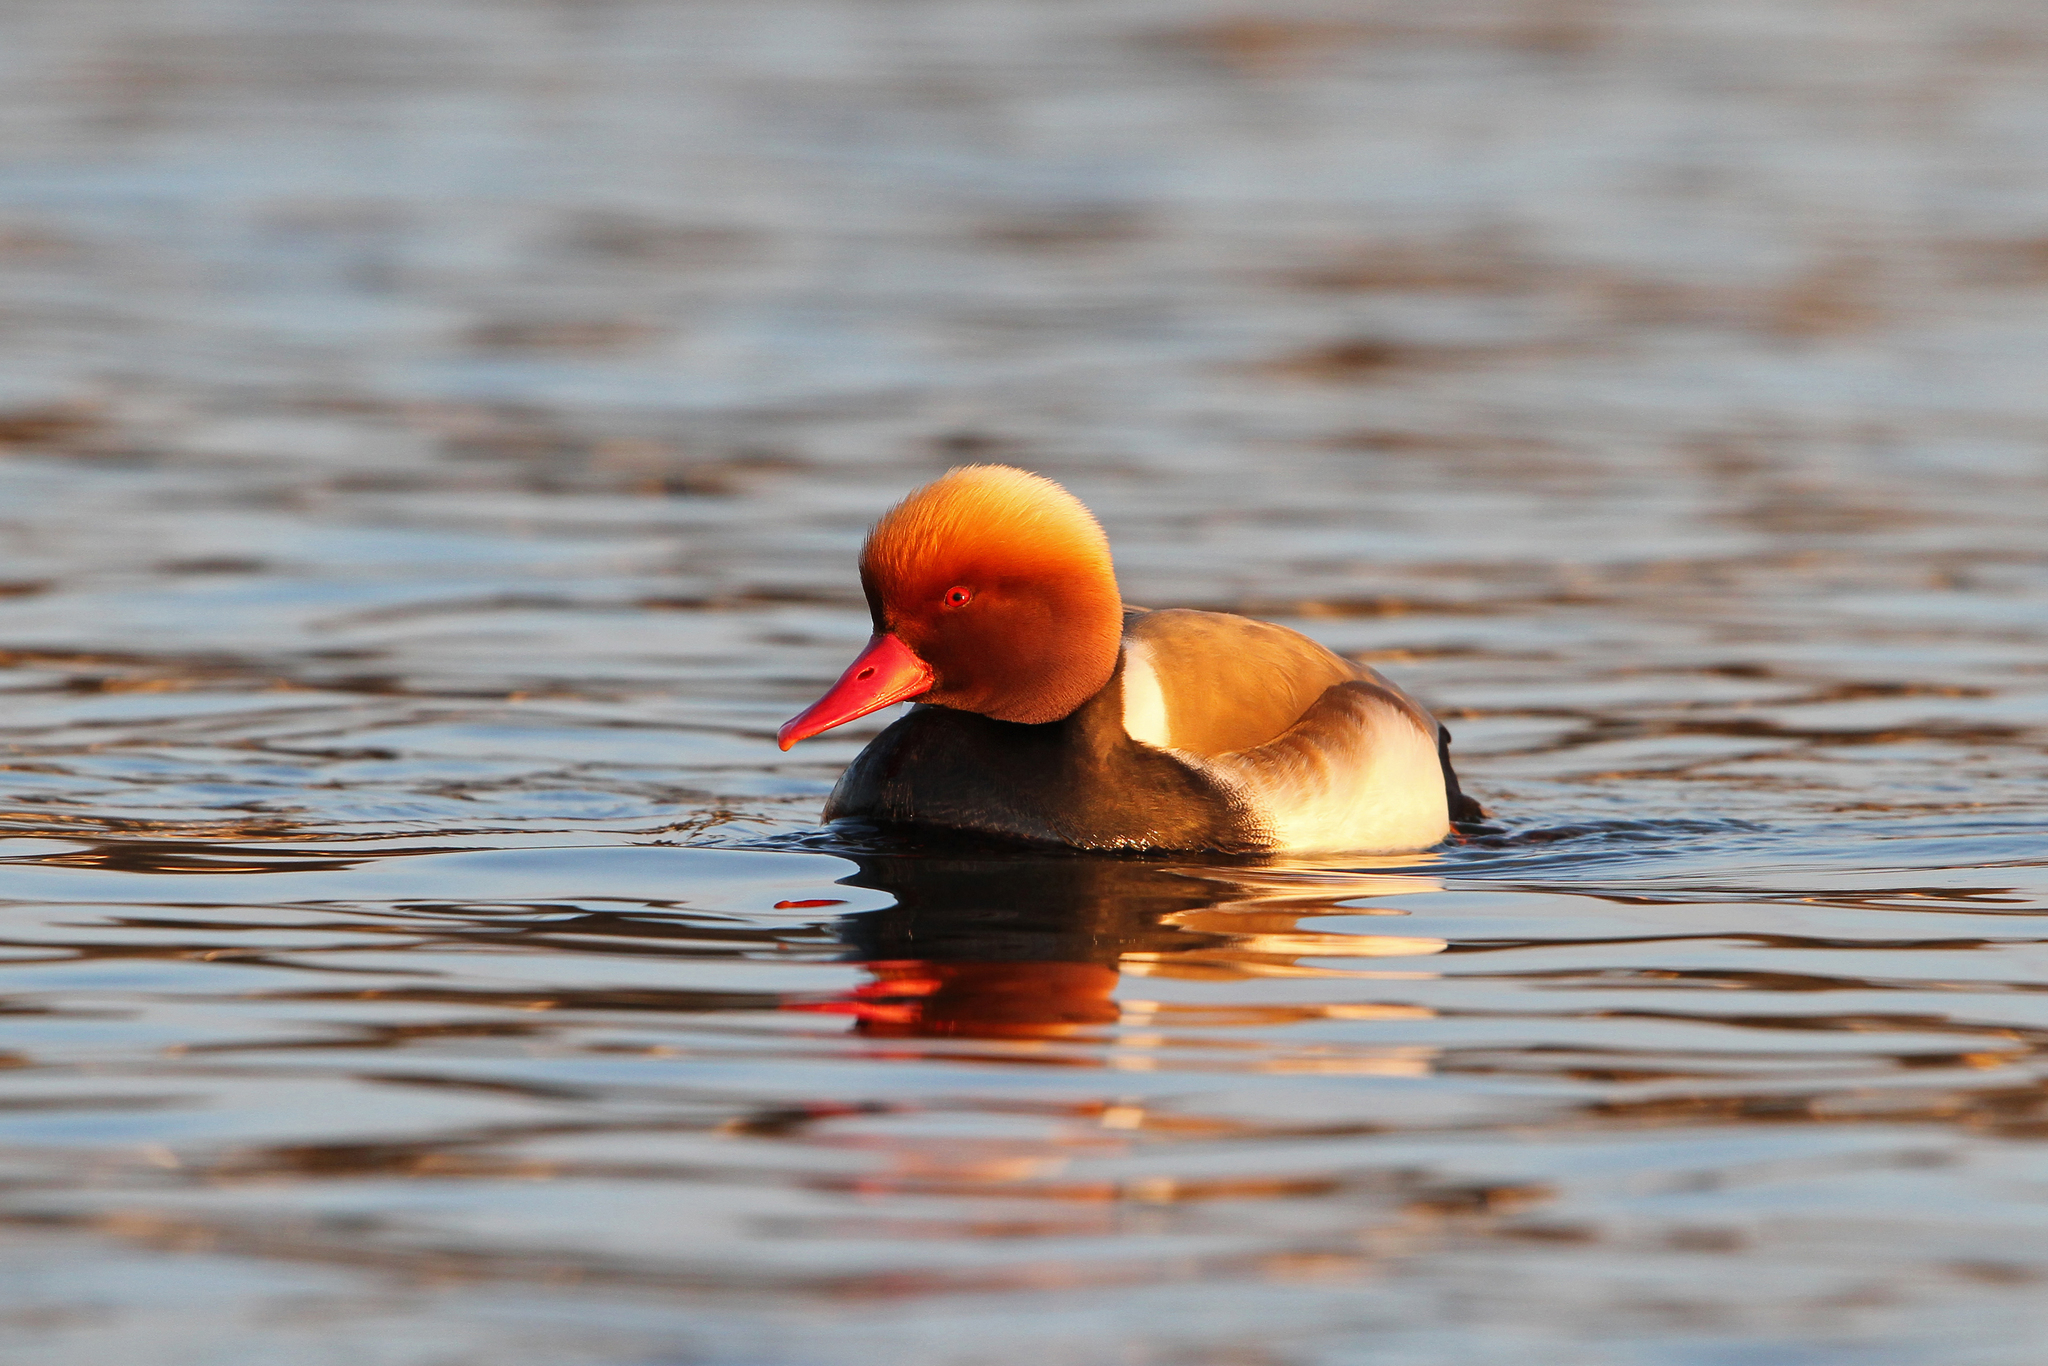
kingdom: Animalia
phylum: Chordata
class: Aves
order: Anseriformes
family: Anatidae
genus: Netta
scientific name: Netta rufina
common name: Red-crested pochard
